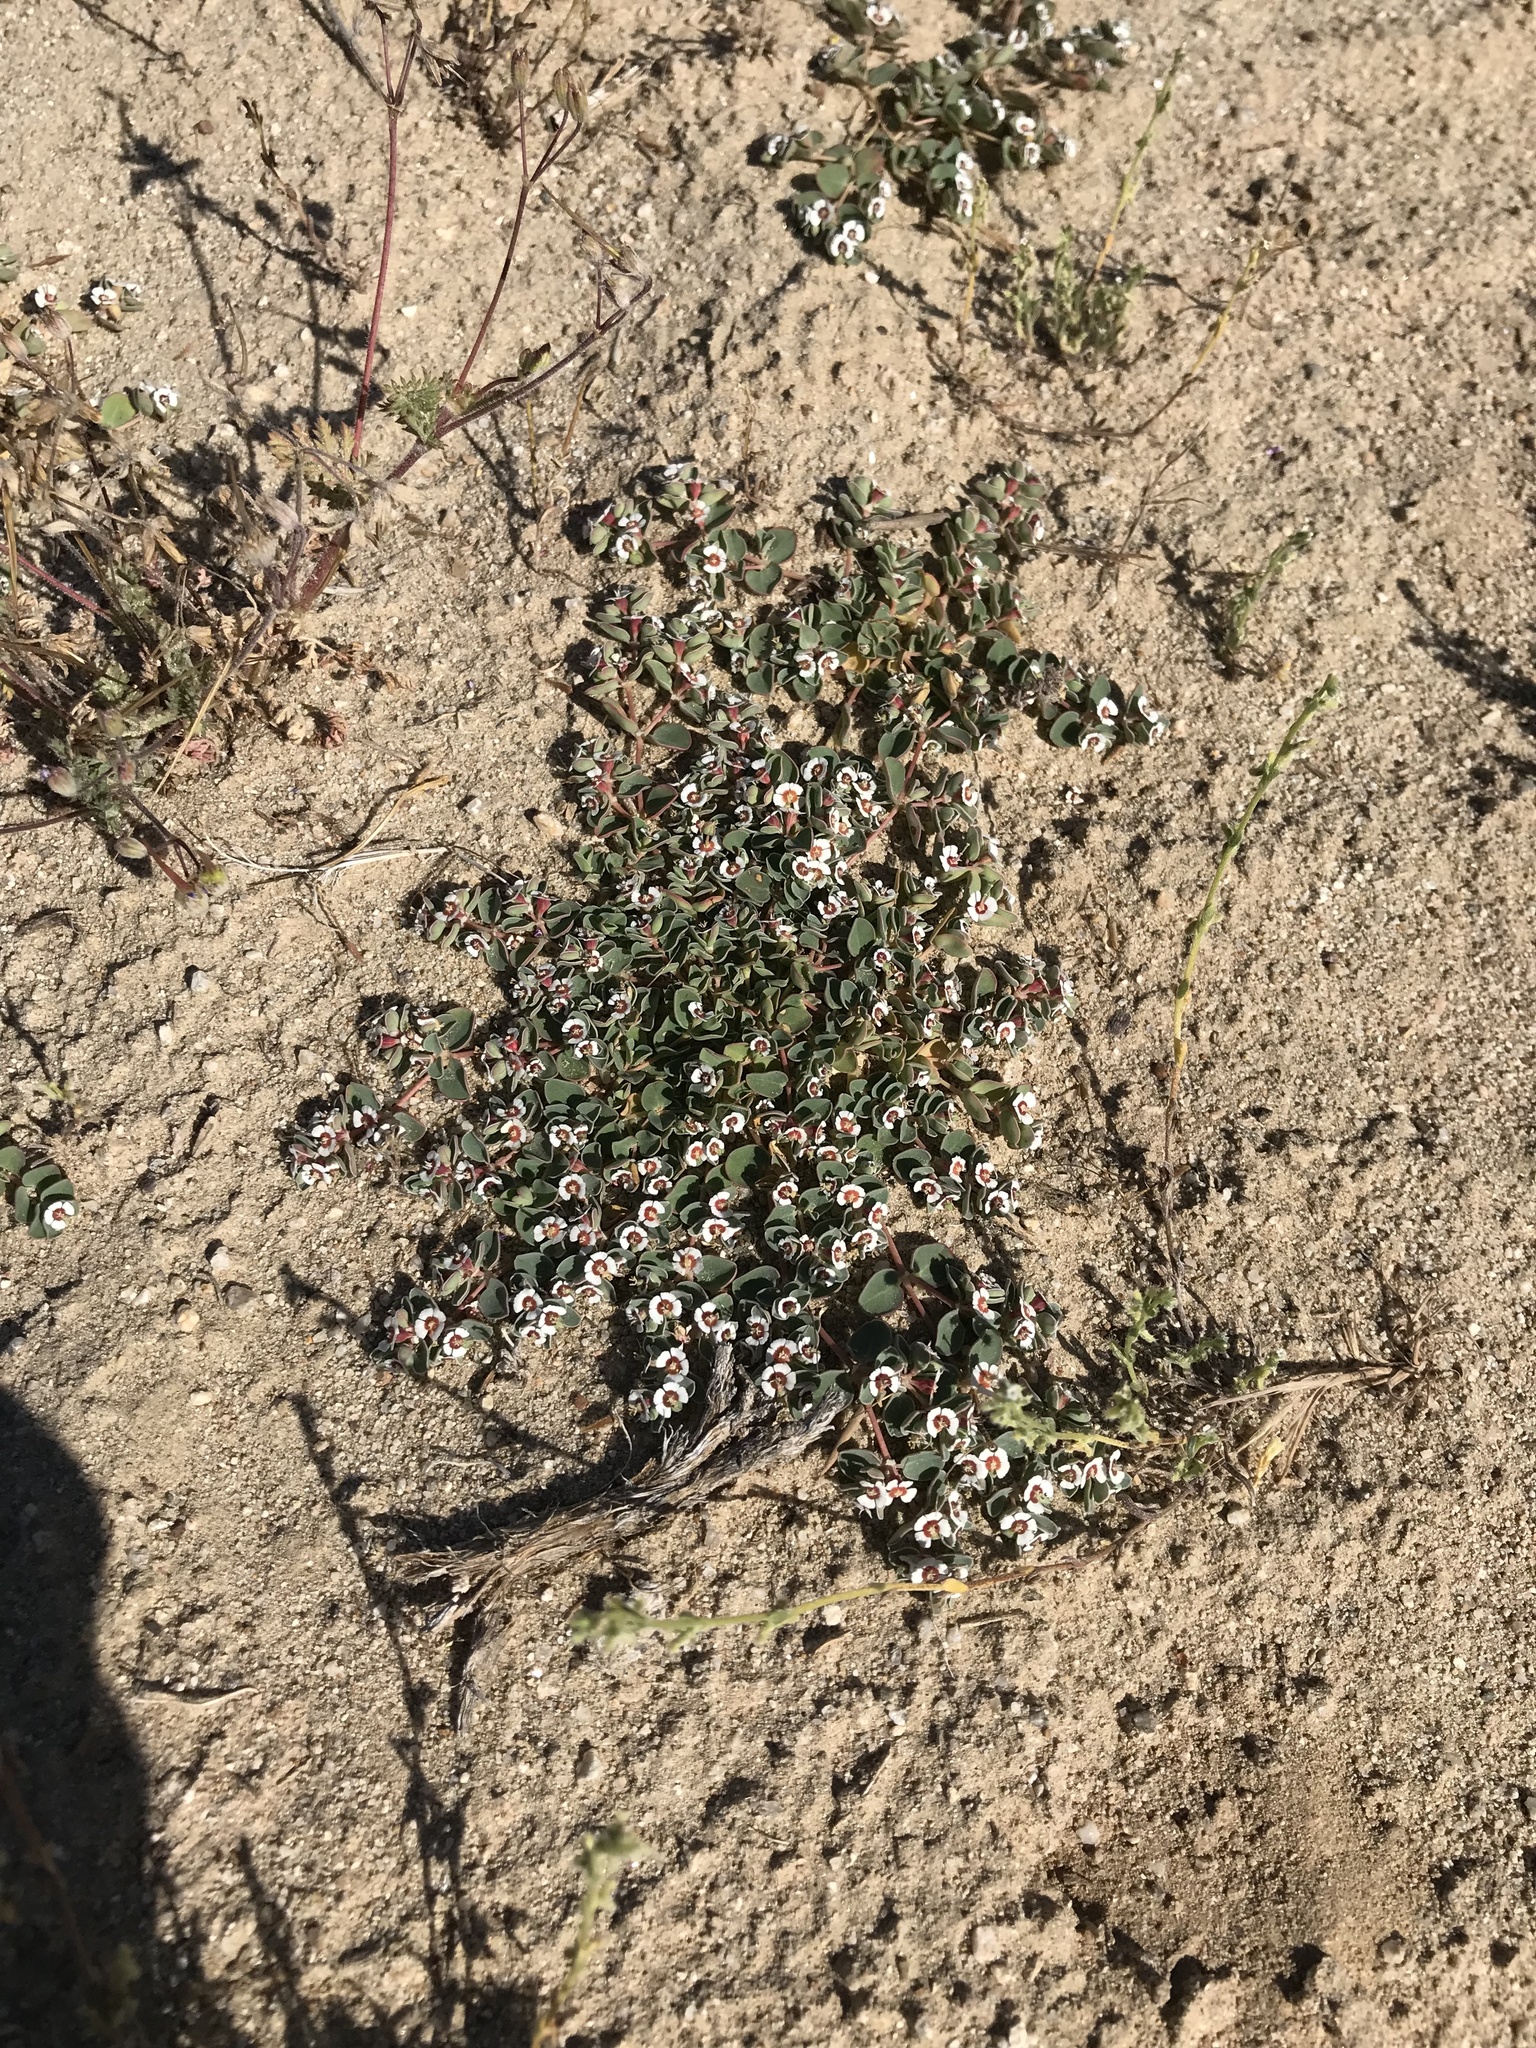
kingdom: Plantae
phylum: Tracheophyta
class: Magnoliopsida
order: Malpighiales
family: Euphorbiaceae
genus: Euphorbia
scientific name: Euphorbia albomarginata
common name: Whitemargin sandmat
